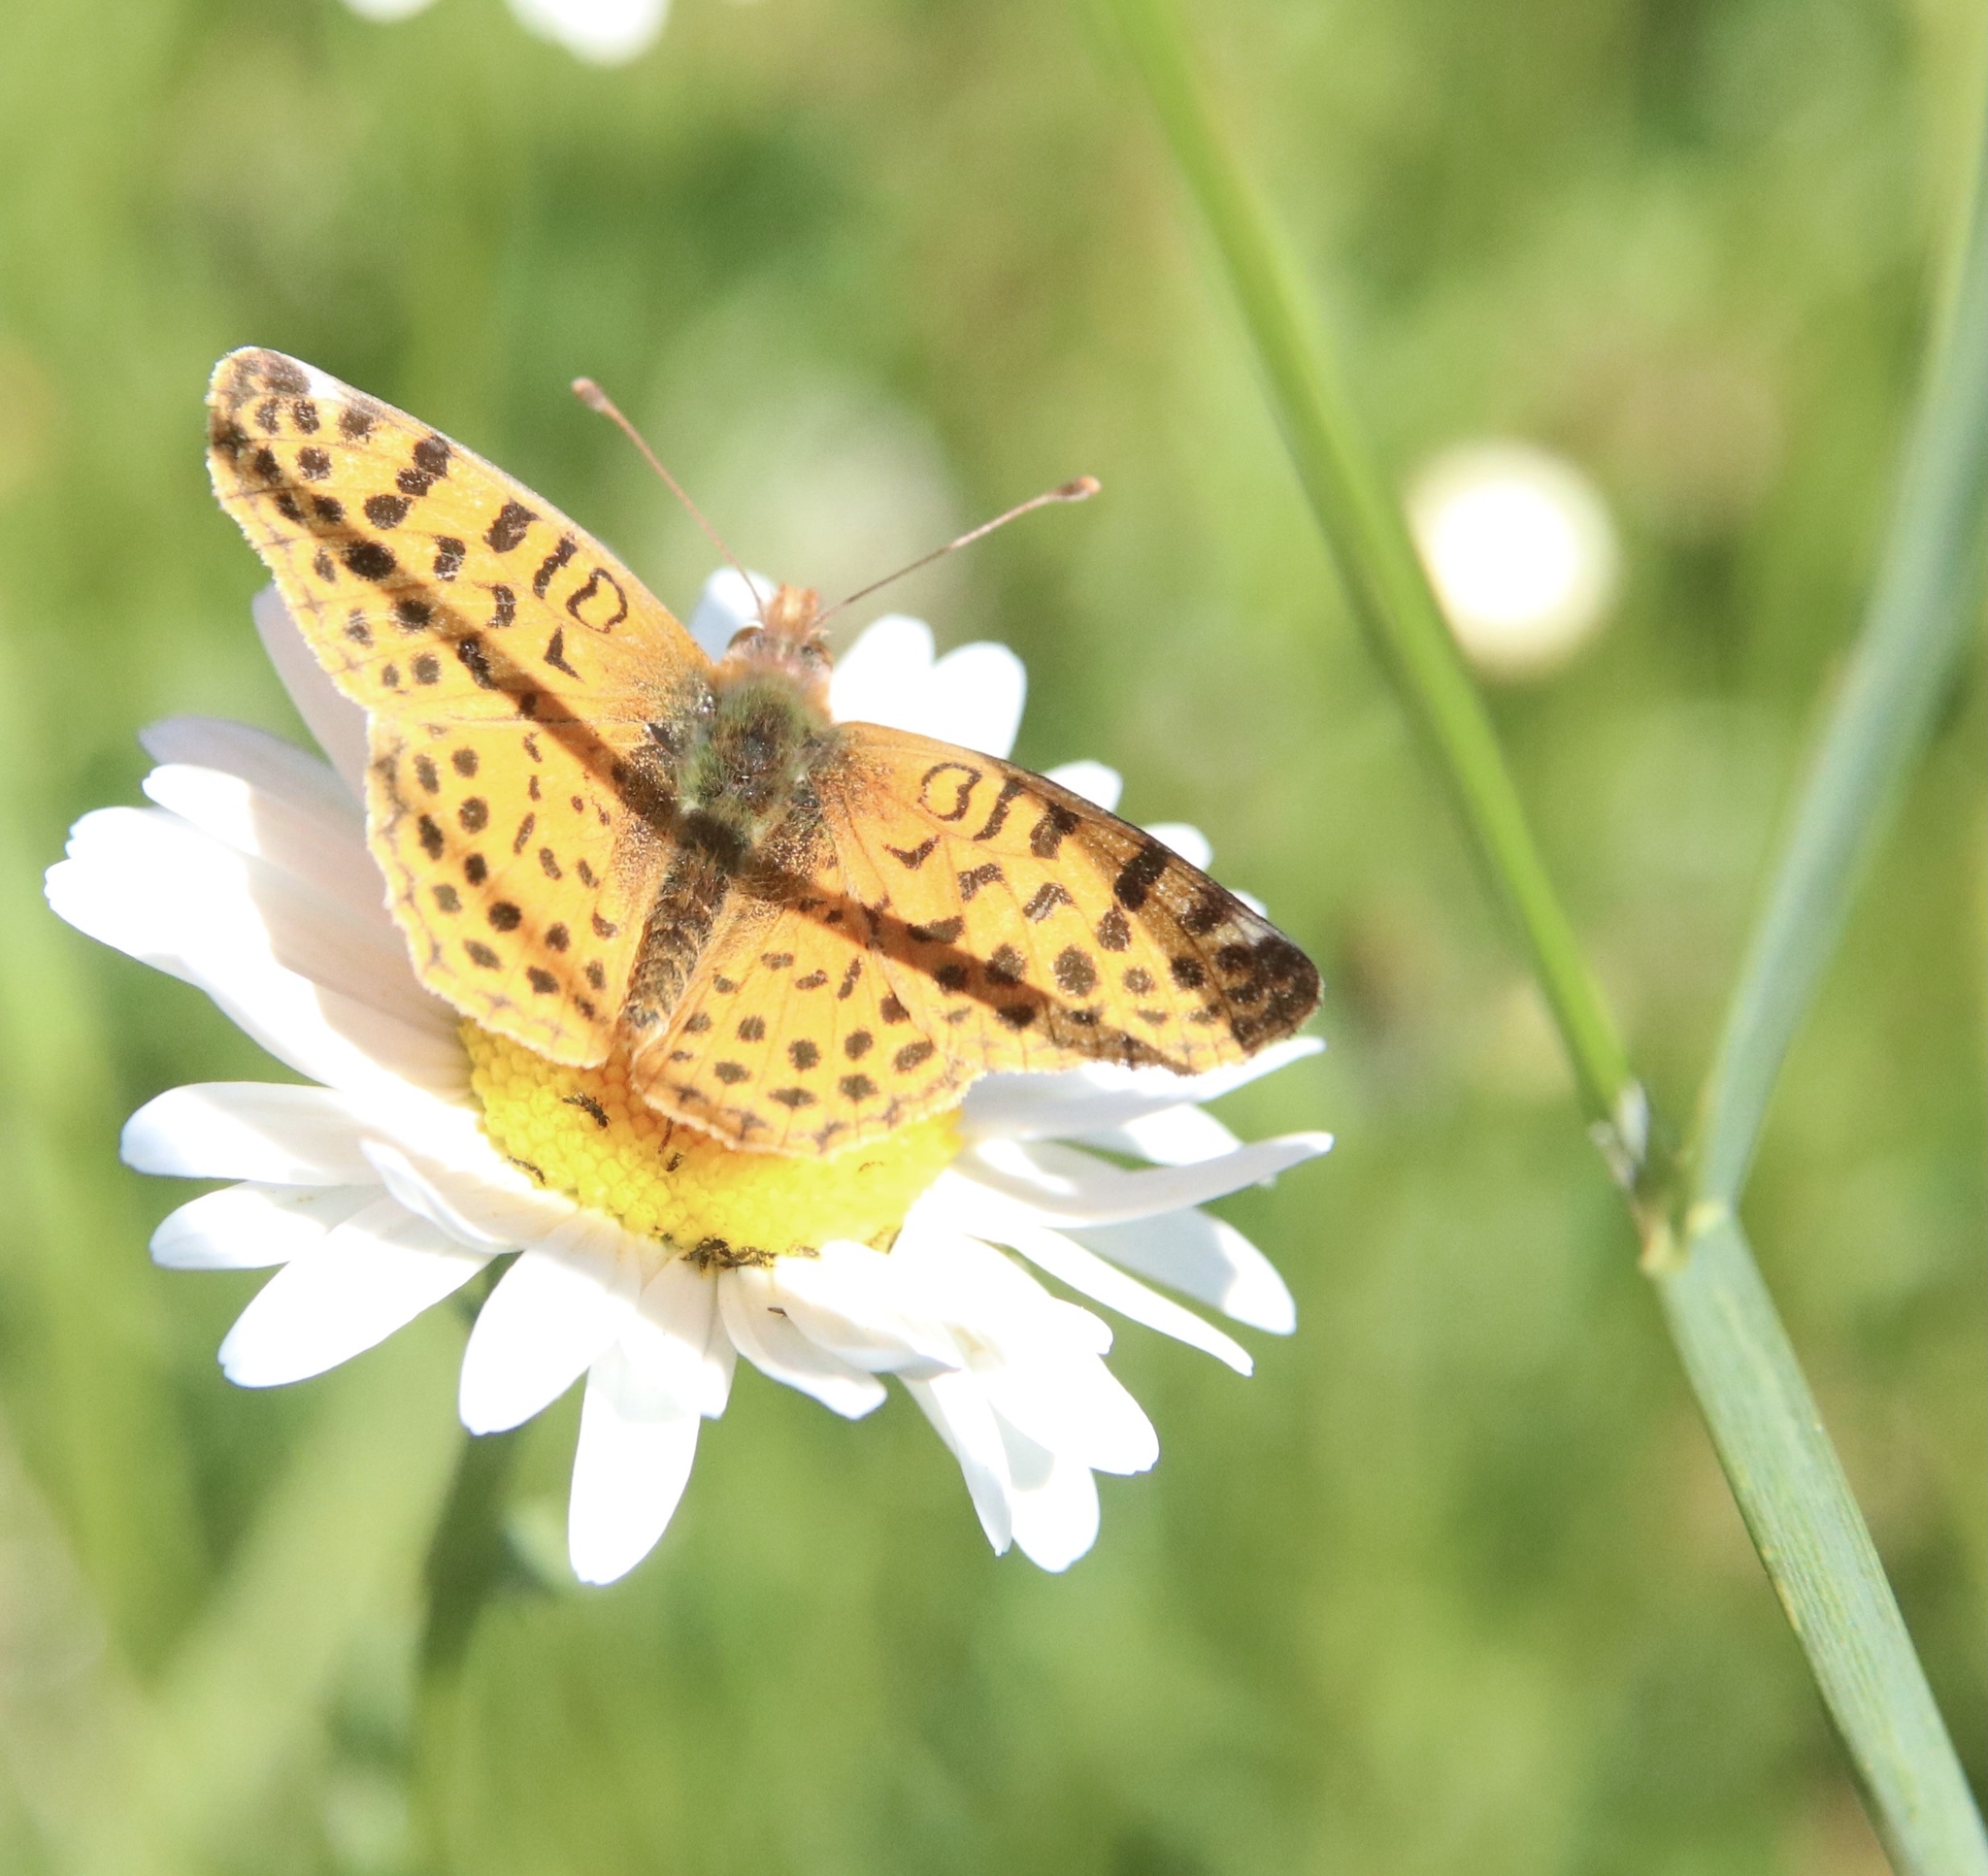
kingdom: Animalia
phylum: Arthropoda
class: Insecta
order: Lepidoptera
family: Nymphalidae
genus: Issoria
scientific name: Issoria Yramea cytheris
